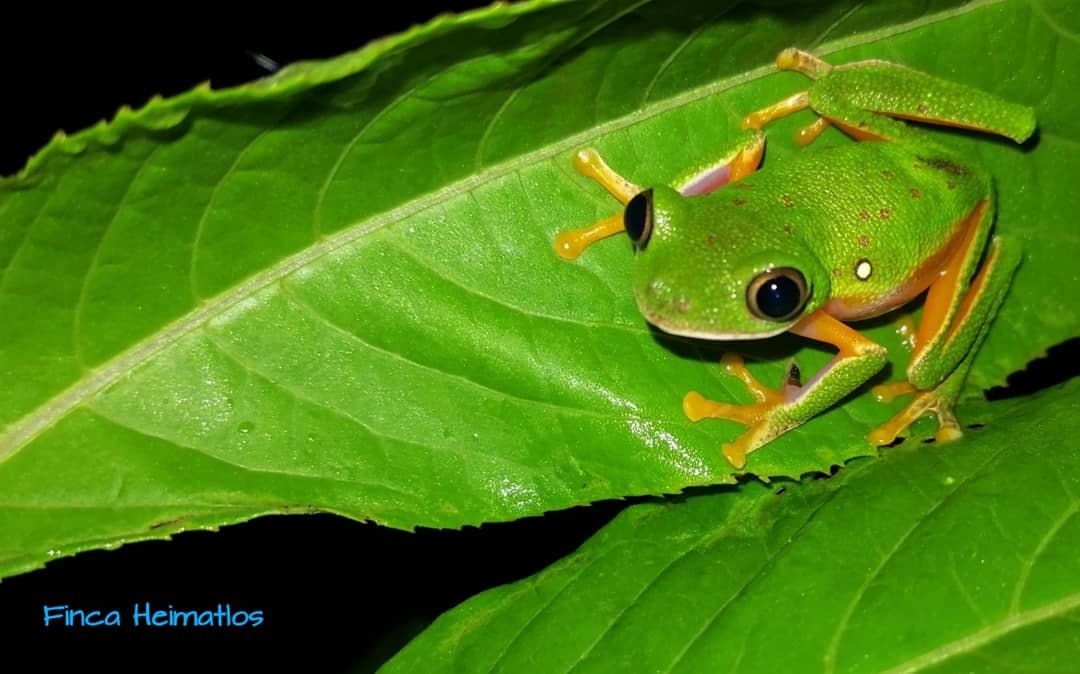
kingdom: Animalia
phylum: Chordata
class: Amphibia
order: Anura
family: Phyllomedusidae
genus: Agalychnis
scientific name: Agalychnis hulli
